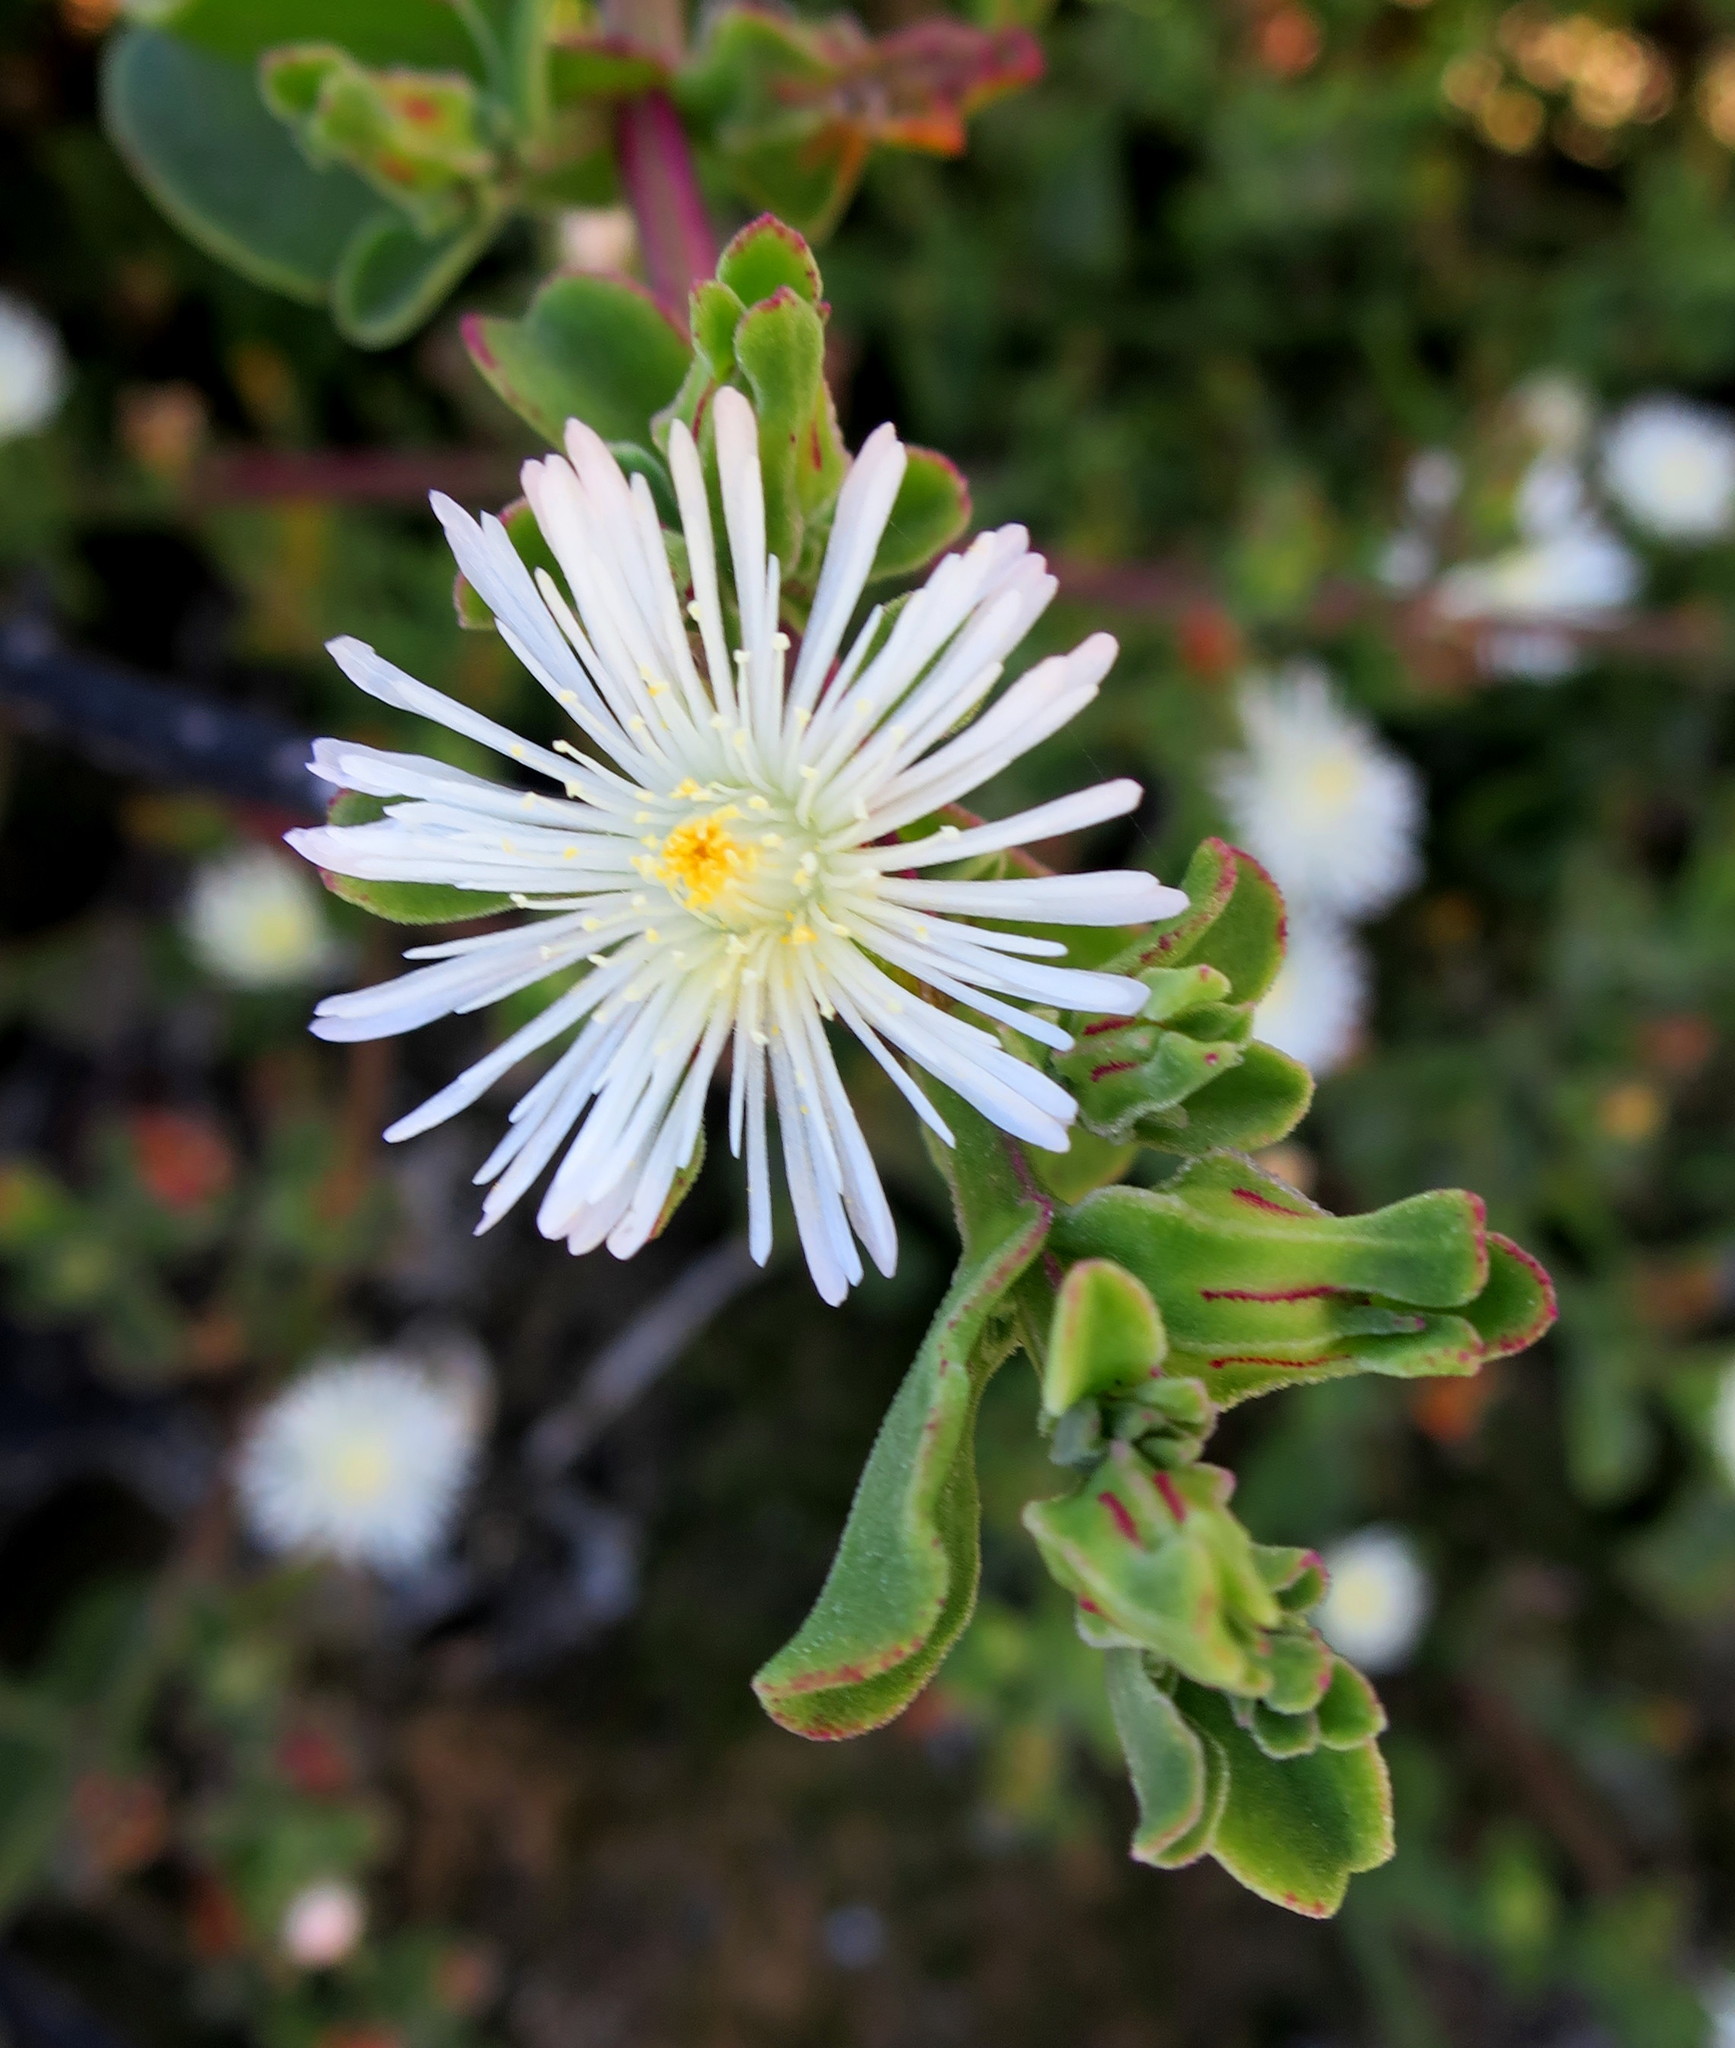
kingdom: Plantae
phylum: Tracheophyta
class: Magnoliopsida
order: Caryophyllales
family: Aizoaceae
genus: Mesembryanthemum
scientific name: Mesembryanthemum aitonis
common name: Angled iceplant
